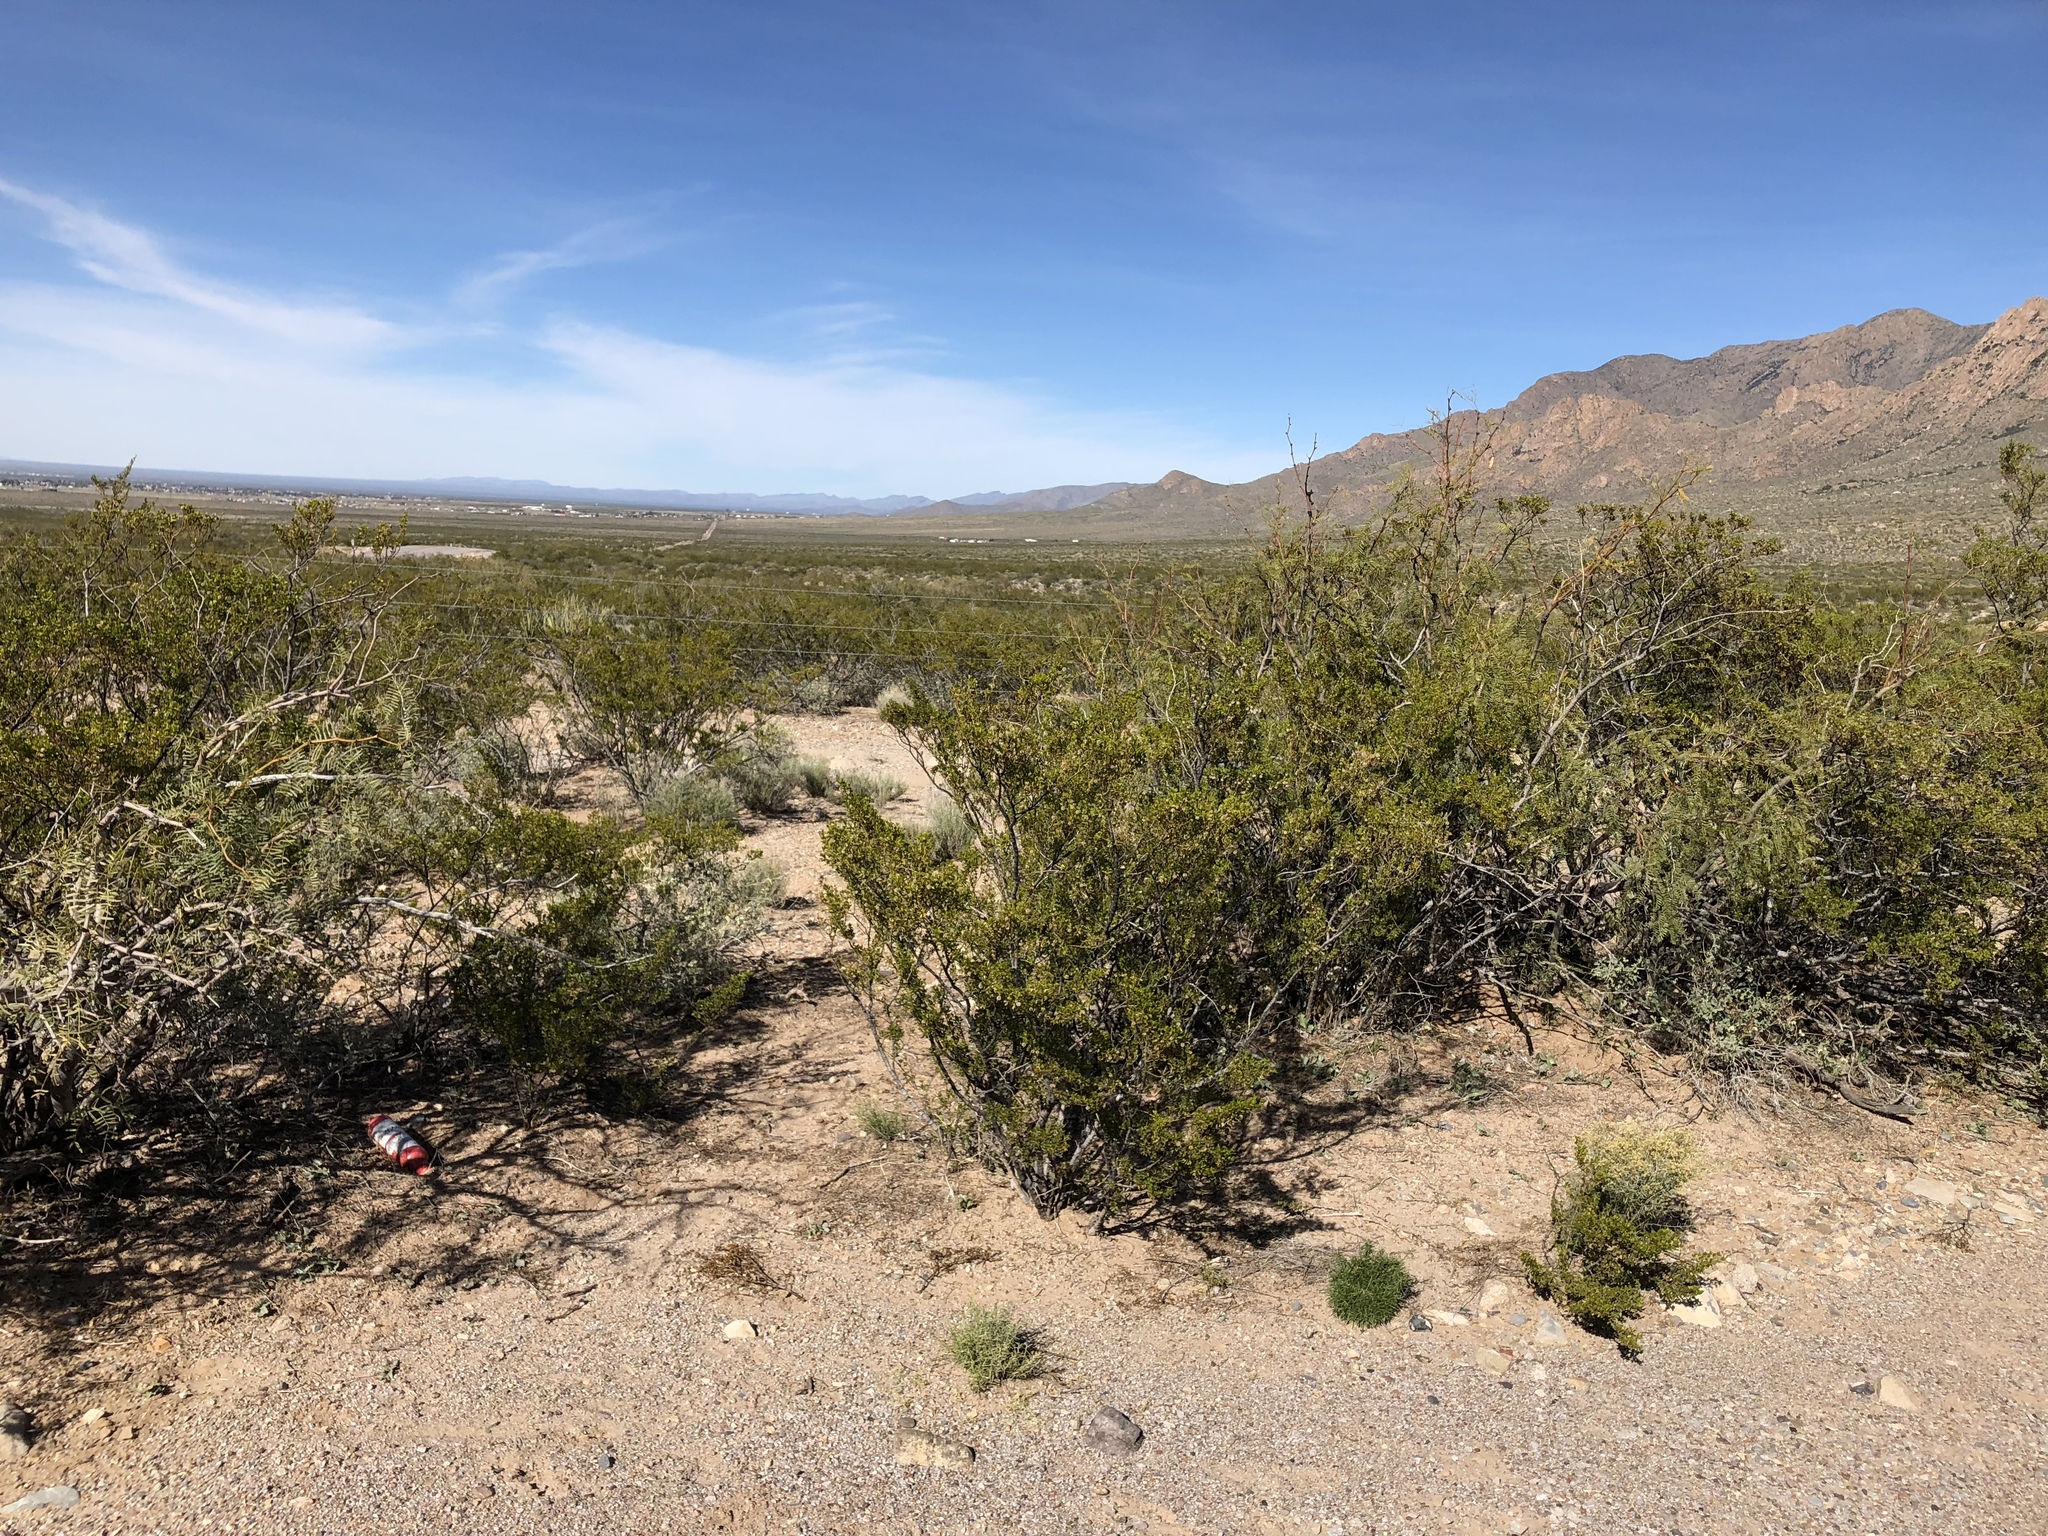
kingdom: Plantae
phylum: Tracheophyta
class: Magnoliopsida
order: Zygophyllales
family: Zygophyllaceae
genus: Larrea
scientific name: Larrea tridentata
